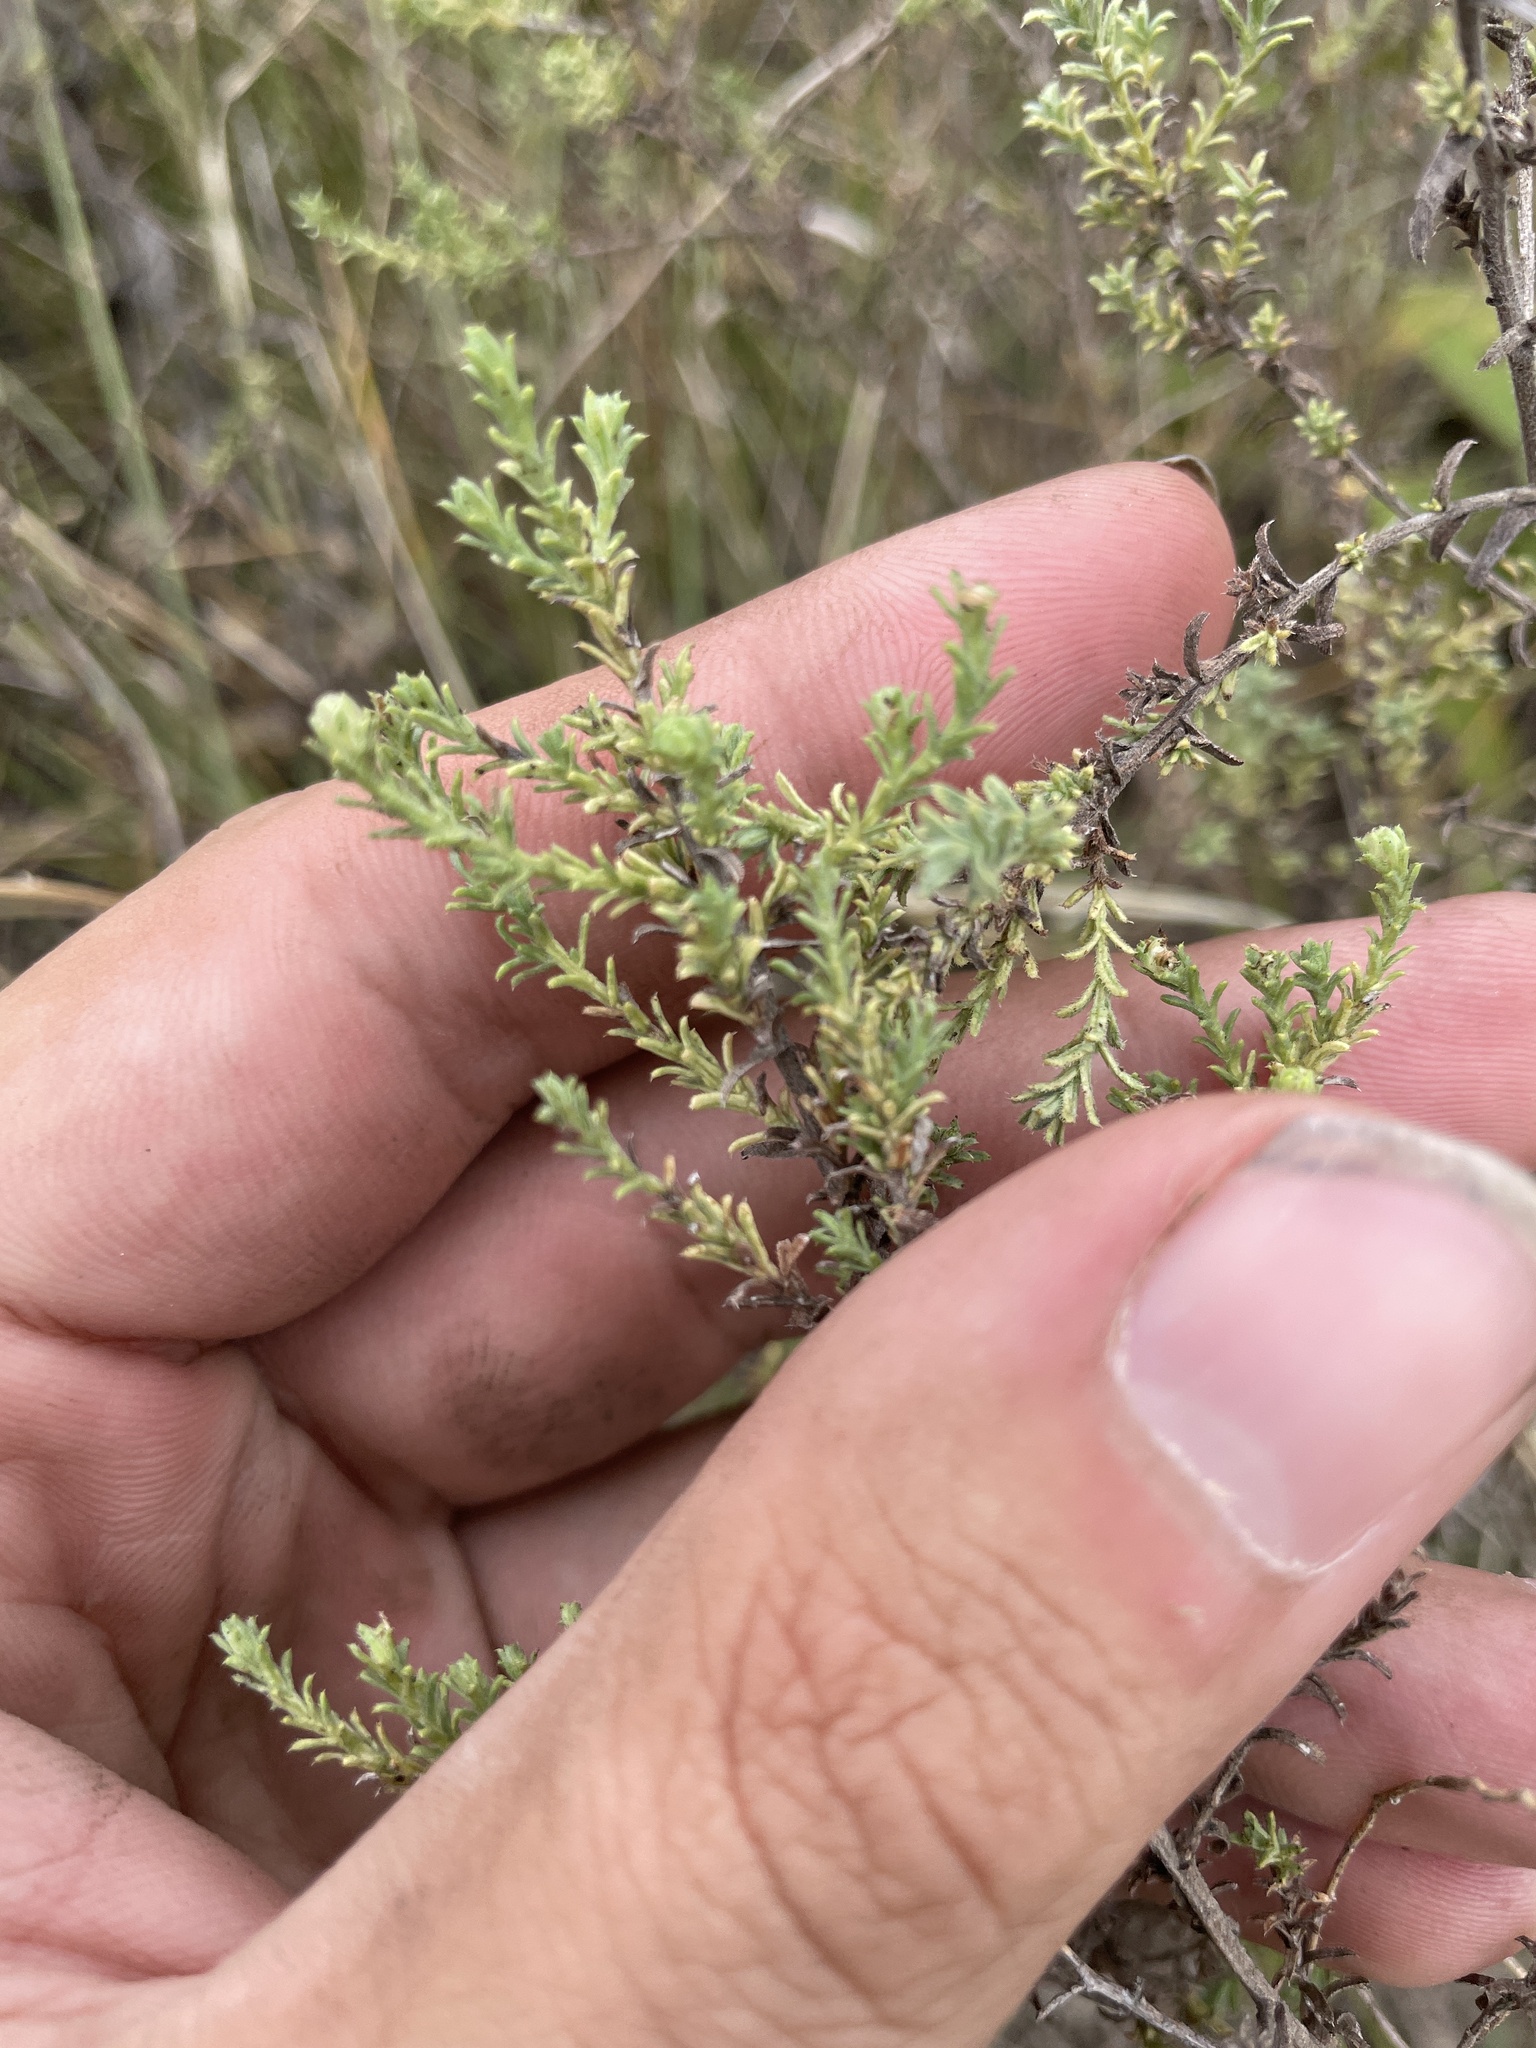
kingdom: Plantae
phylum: Tracheophyta
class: Magnoliopsida
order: Asterales
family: Asteraceae
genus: Symphyotrichum
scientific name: Symphyotrichum ericoides
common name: Heath aster
